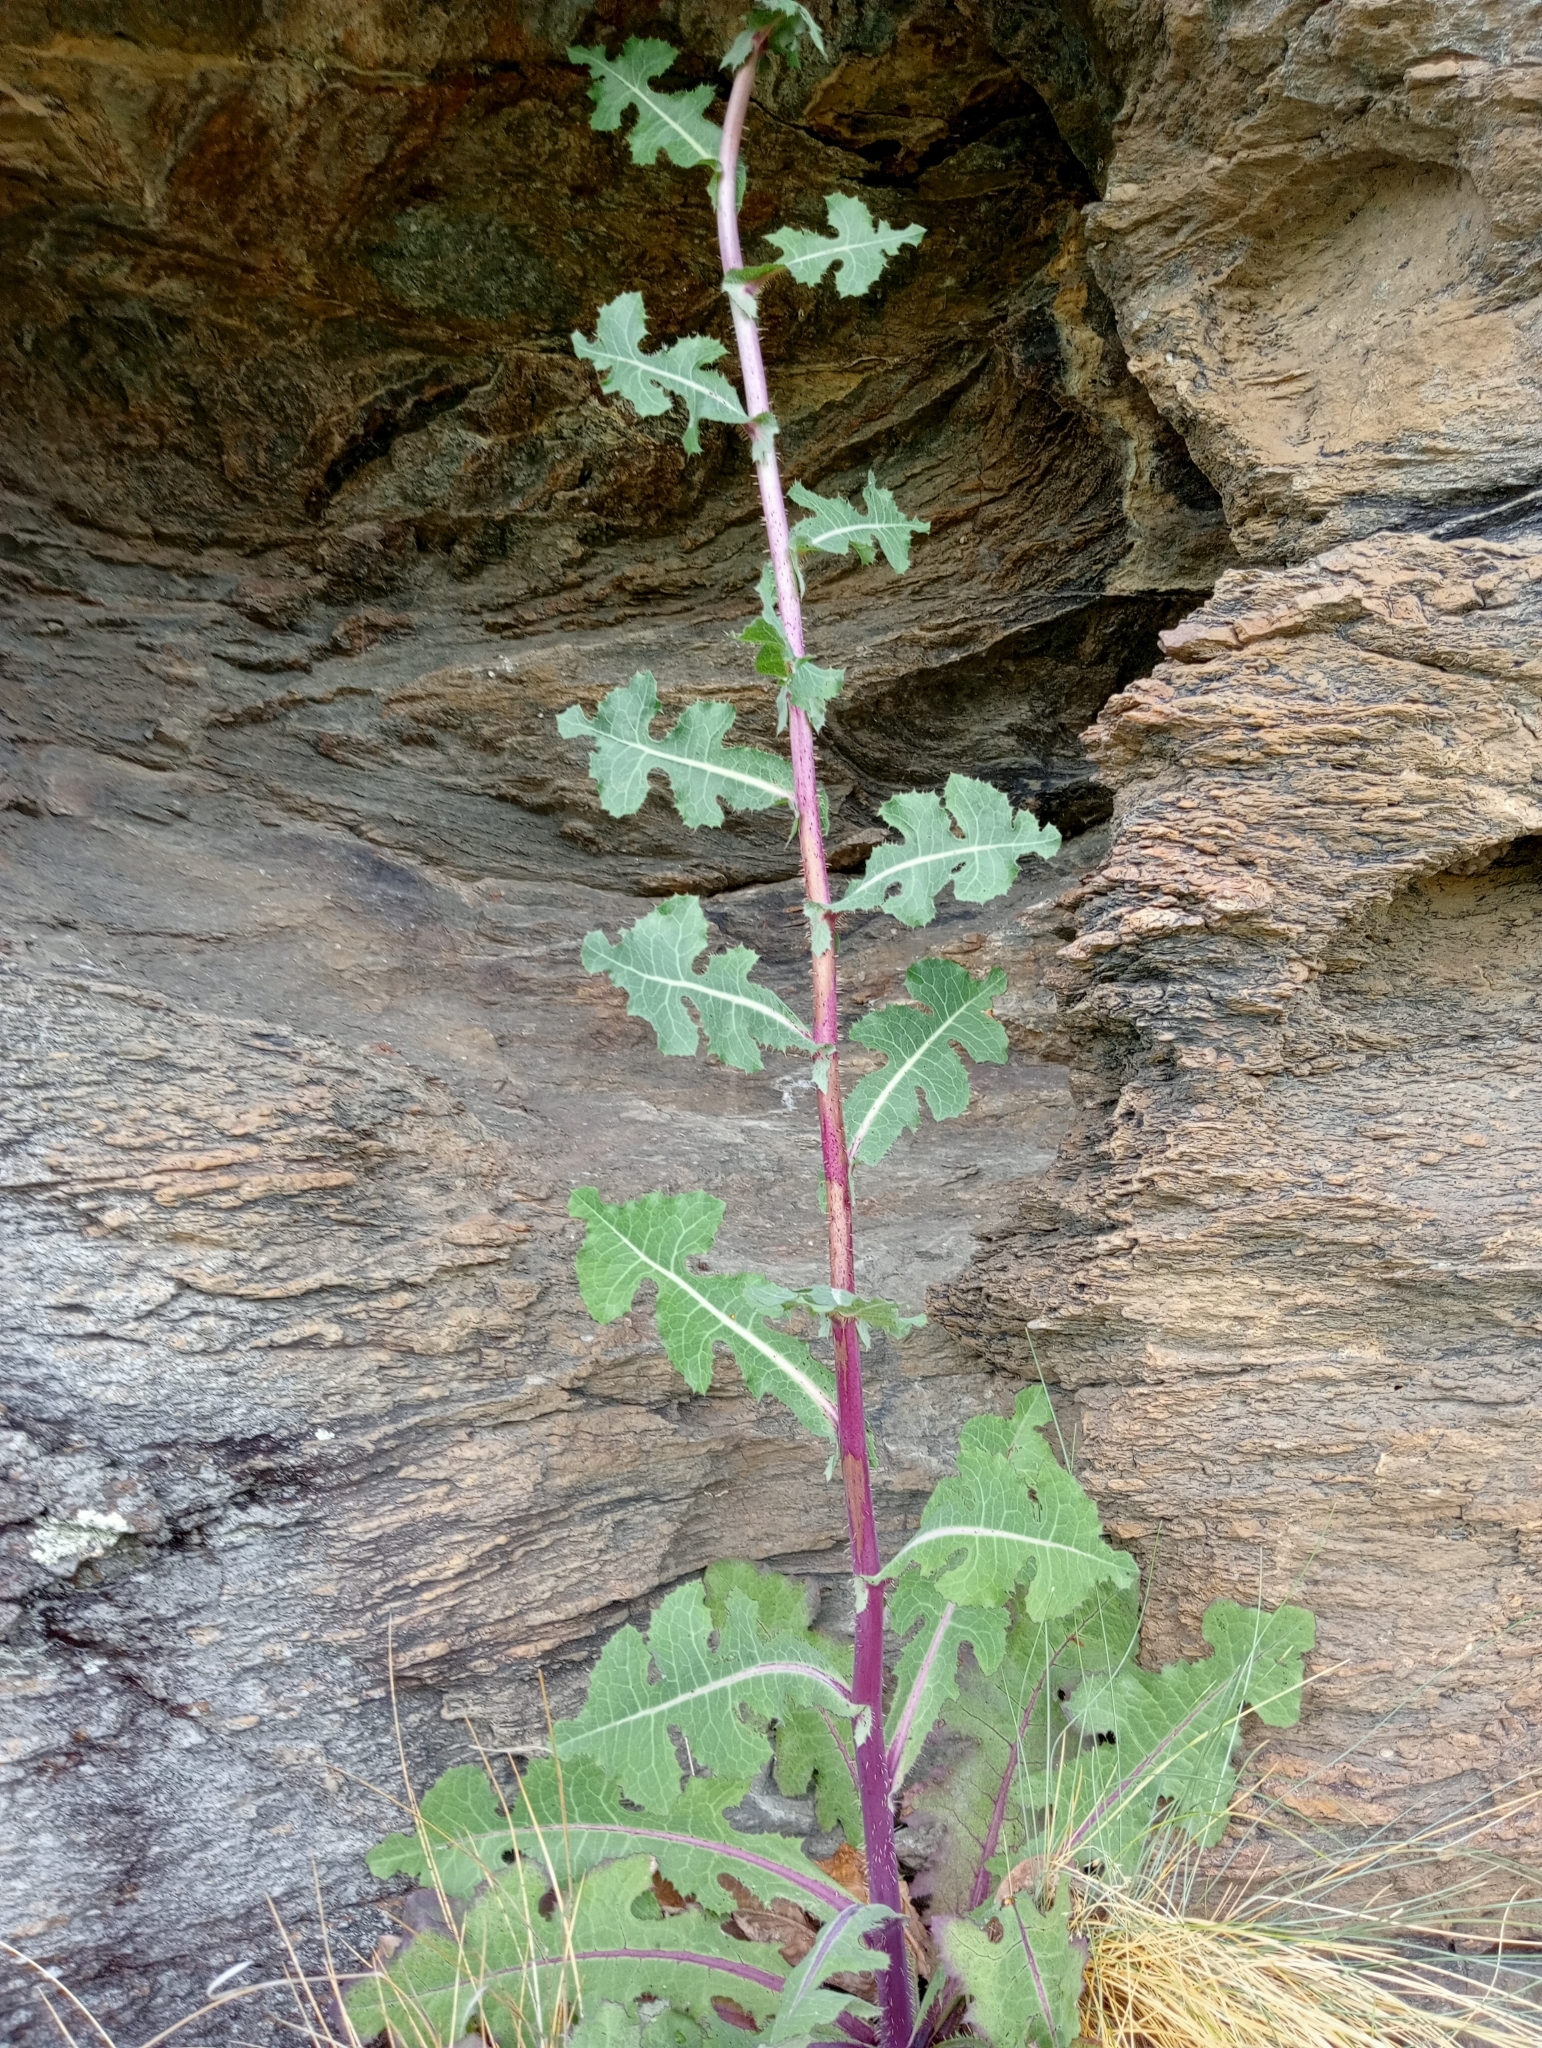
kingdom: Plantae
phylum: Tracheophyta
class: Magnoliopsida
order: Asterales
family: Asteraceae
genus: Lactuca
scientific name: Lactuca virosa
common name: Great lettuce
